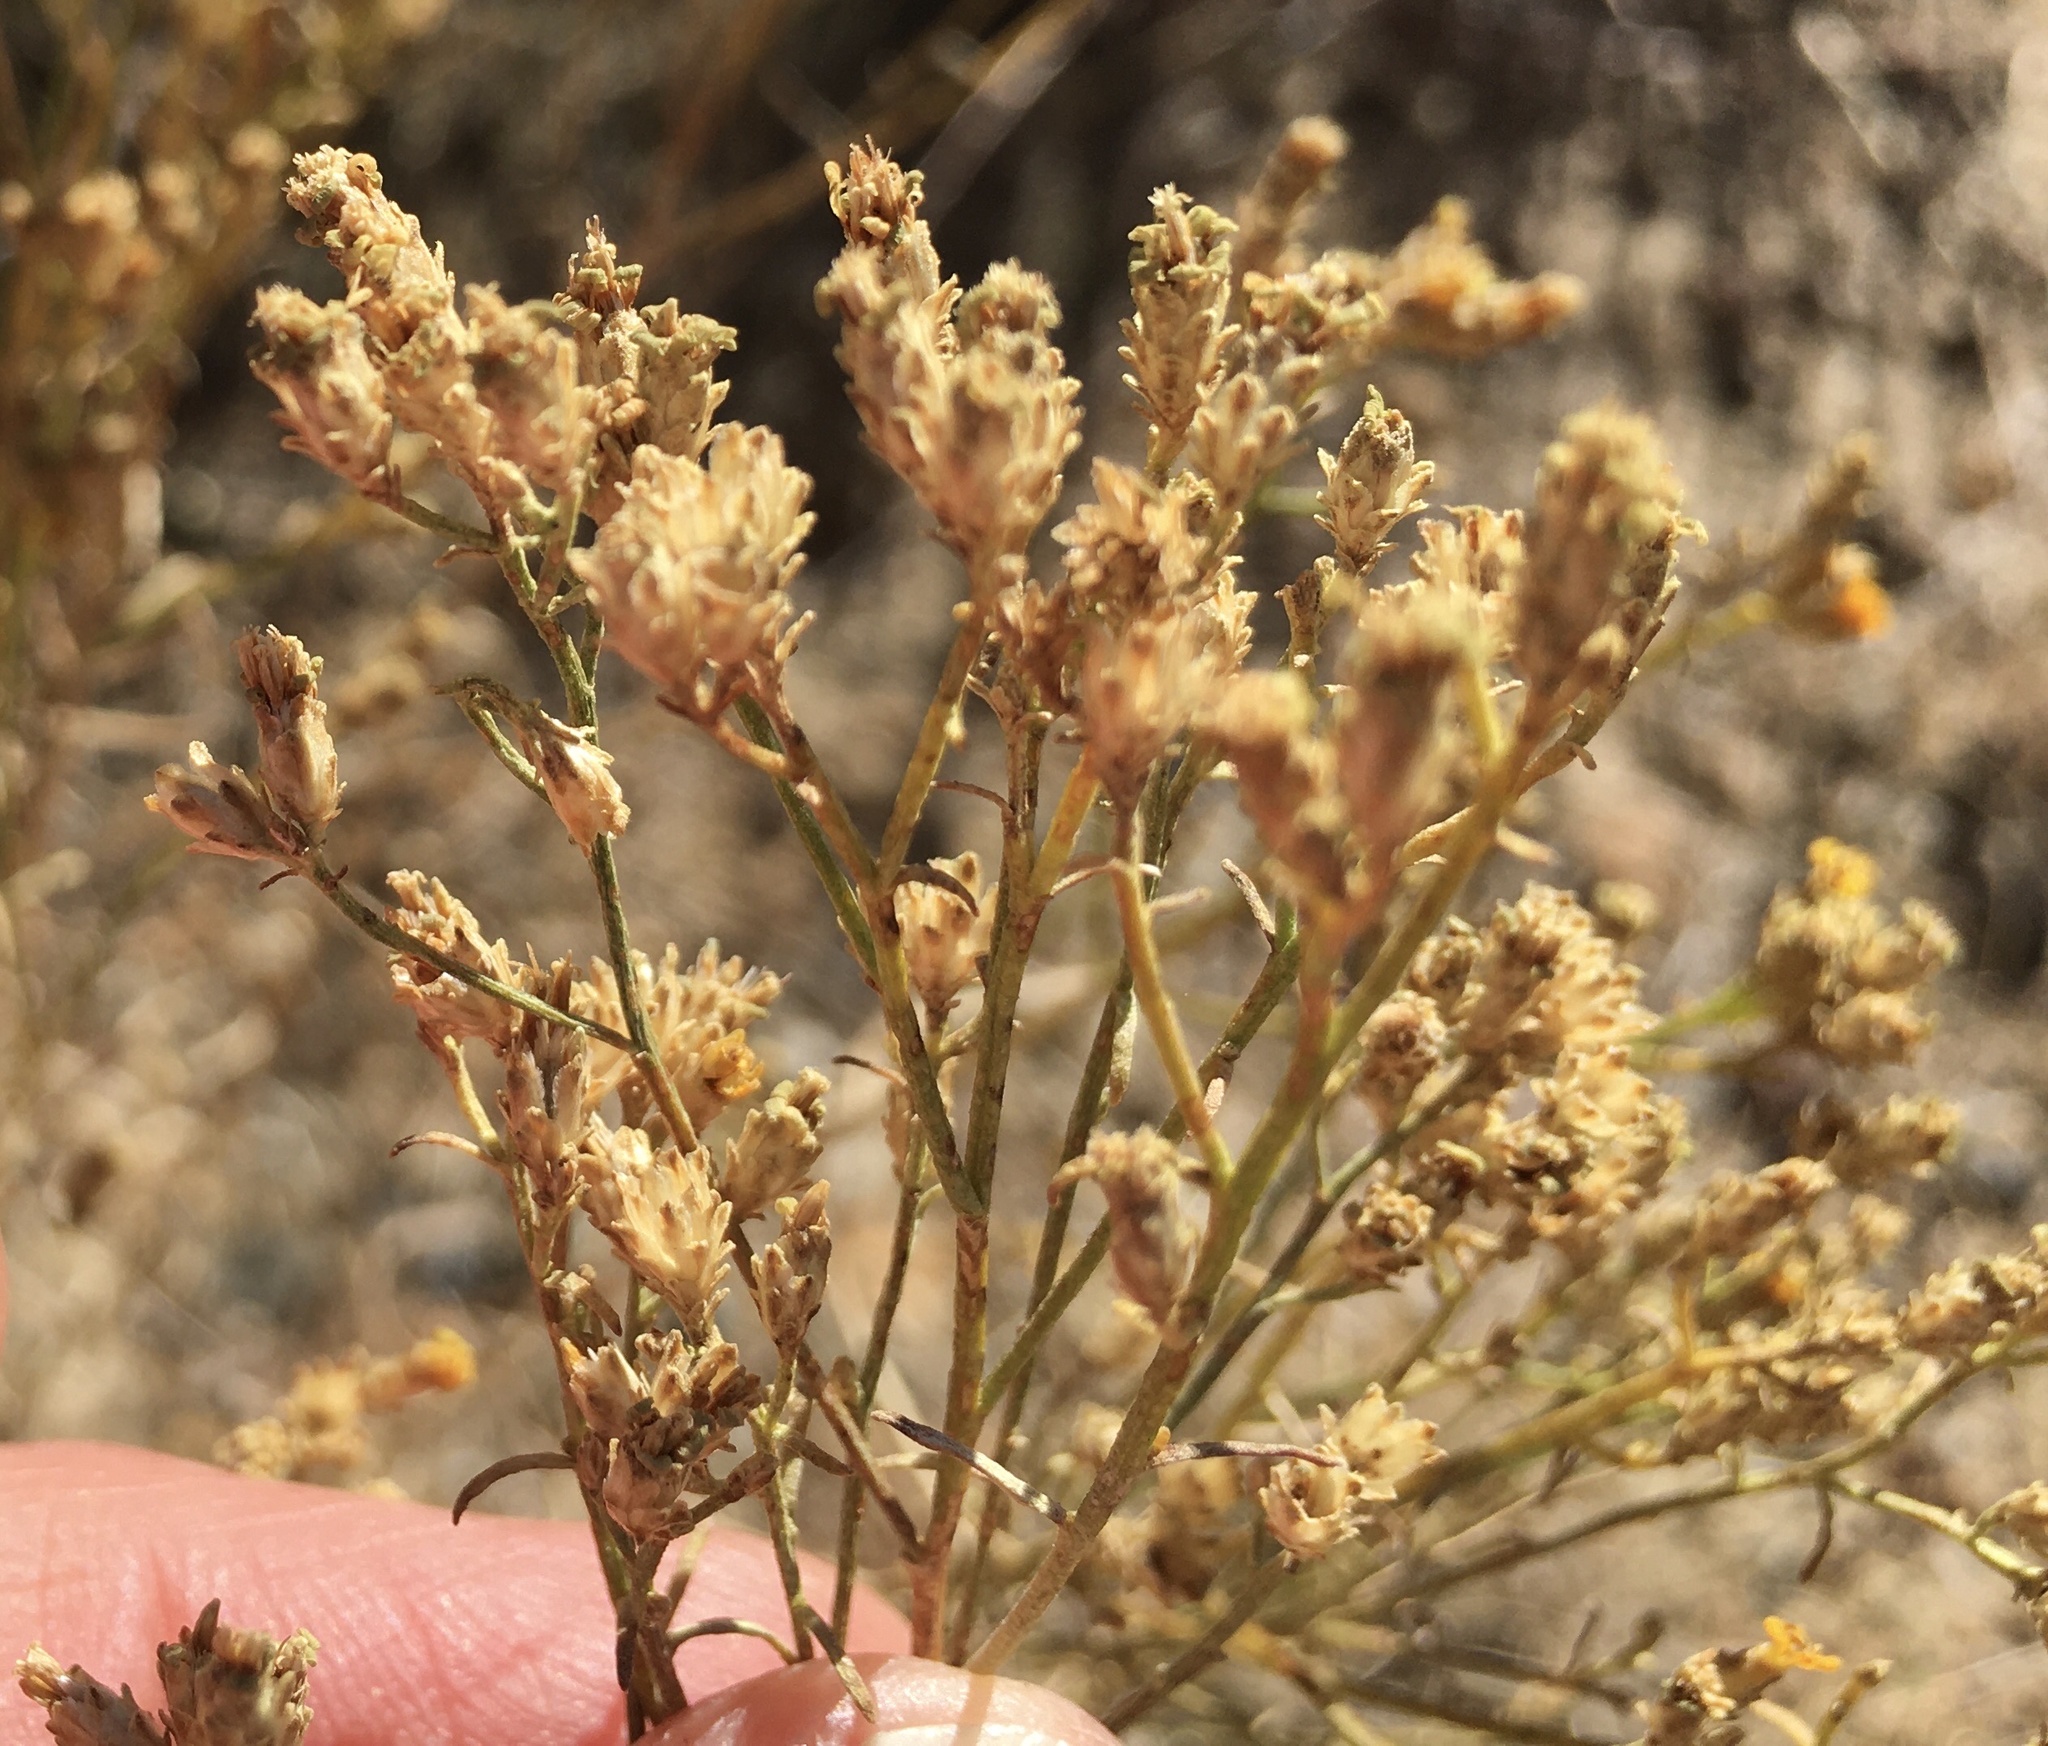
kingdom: Plantae
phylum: Tracheophyta
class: Magnoliopsida
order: Asterales
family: Asteraceae
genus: Gutierrezia
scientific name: Gutierrezia sarothrae
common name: Broom snakeweed
